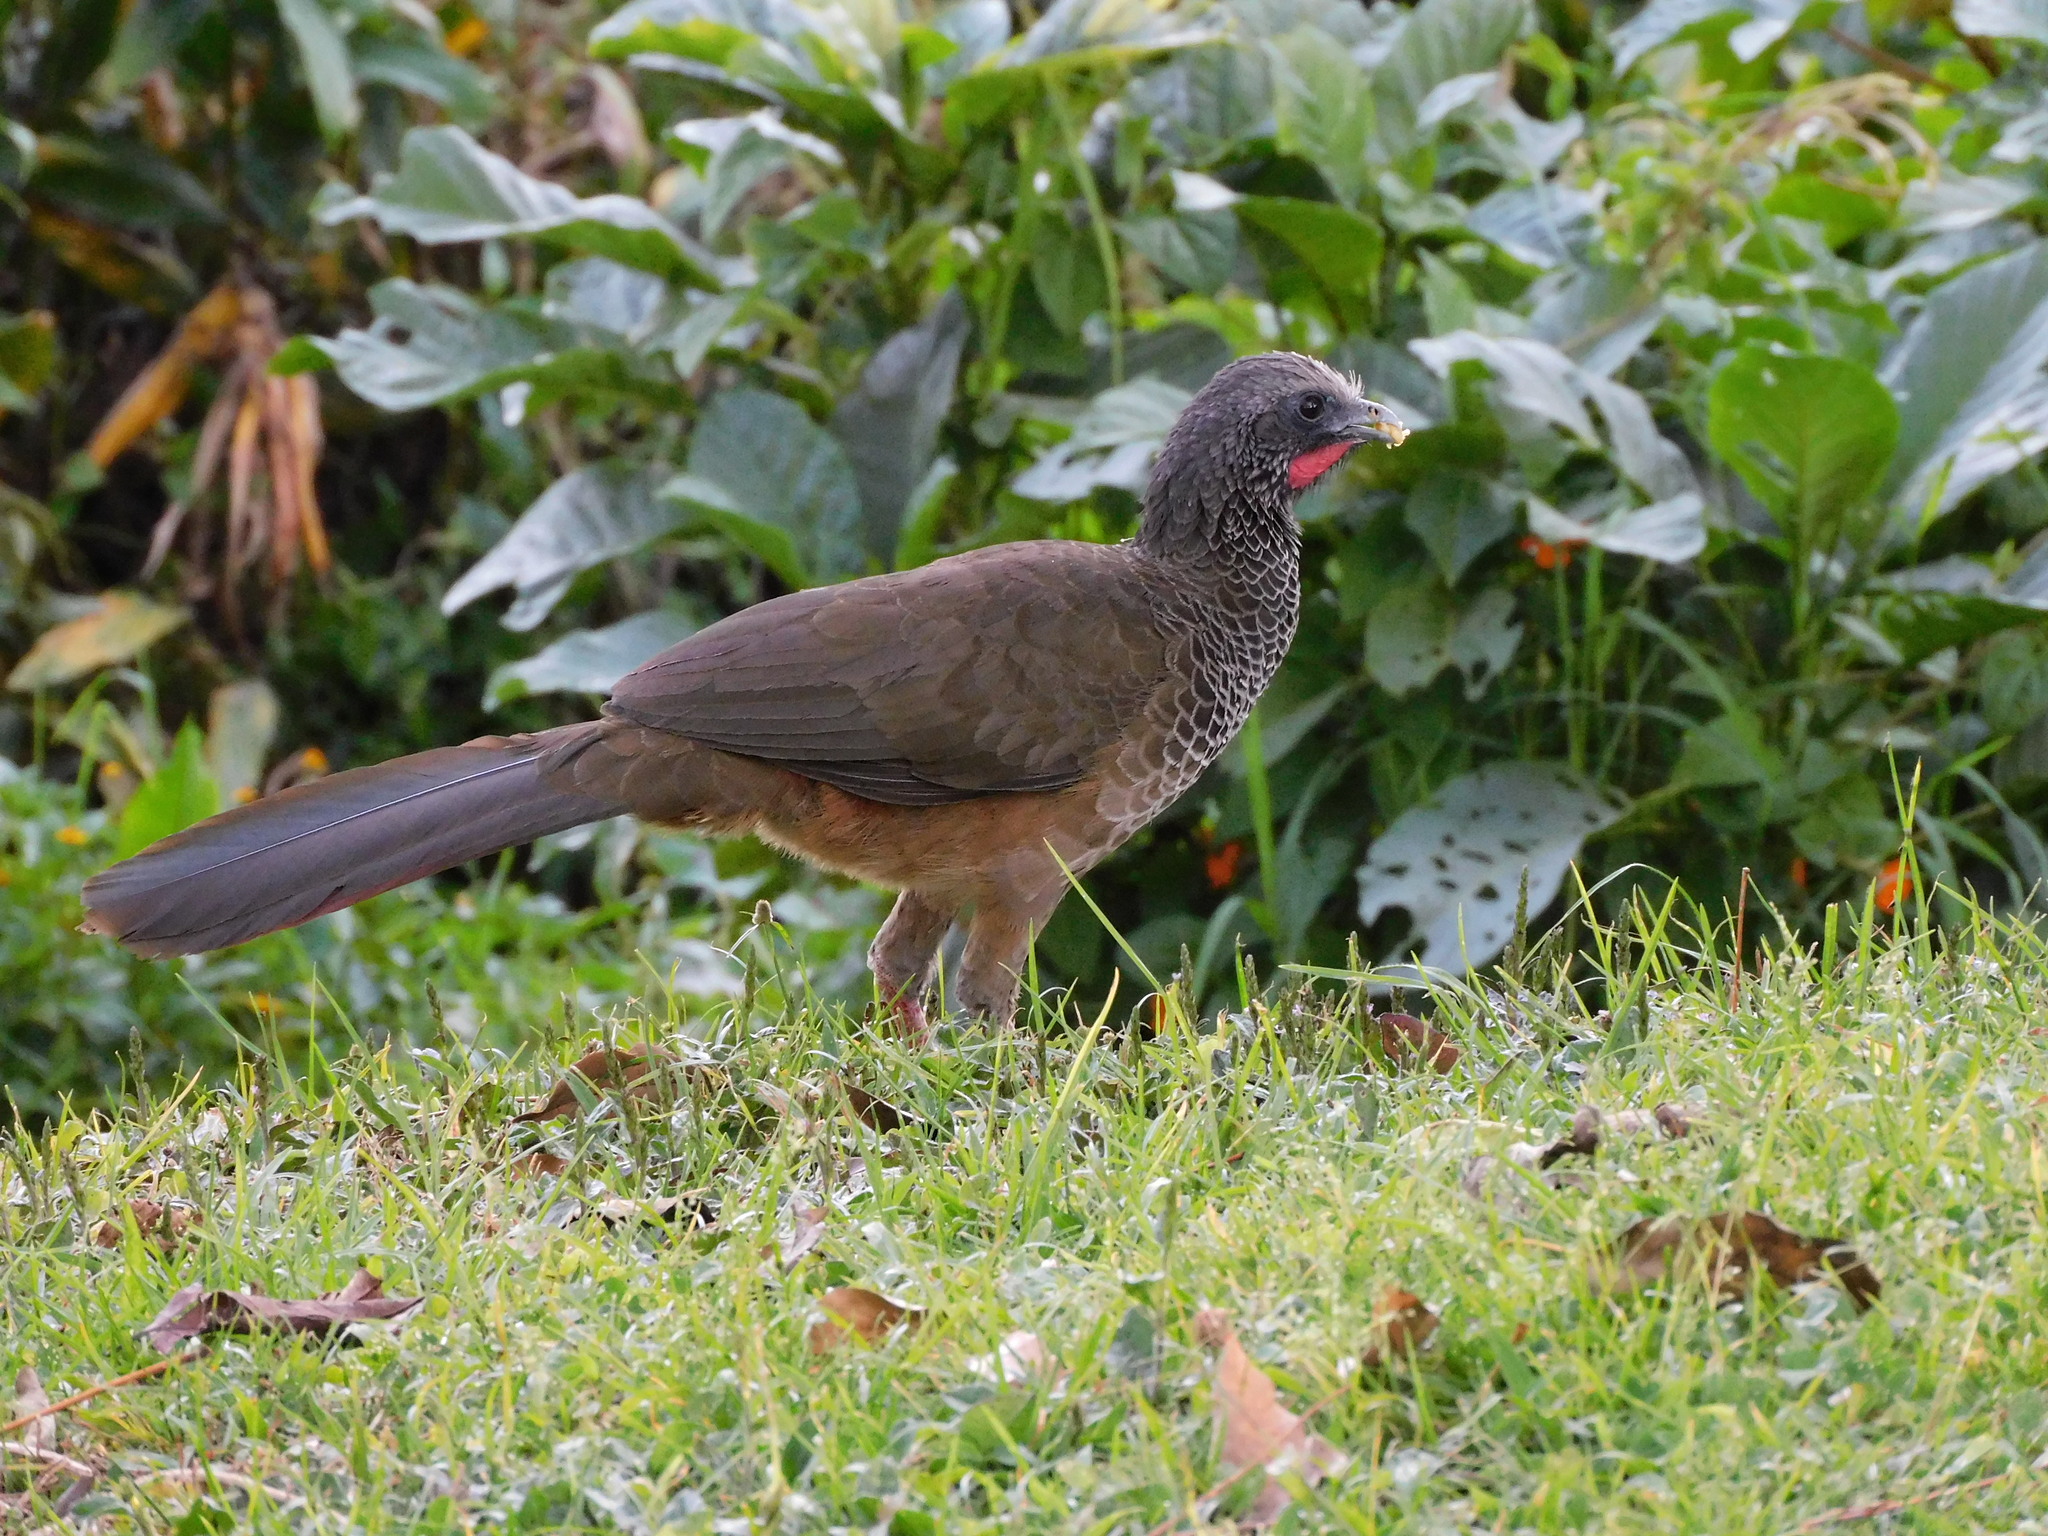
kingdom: Animalia
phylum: Chordata
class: Aves
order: Galliformes
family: Cracidae
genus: Ortalis
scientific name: Ortalis columbiana
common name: Colombian chachalaca
